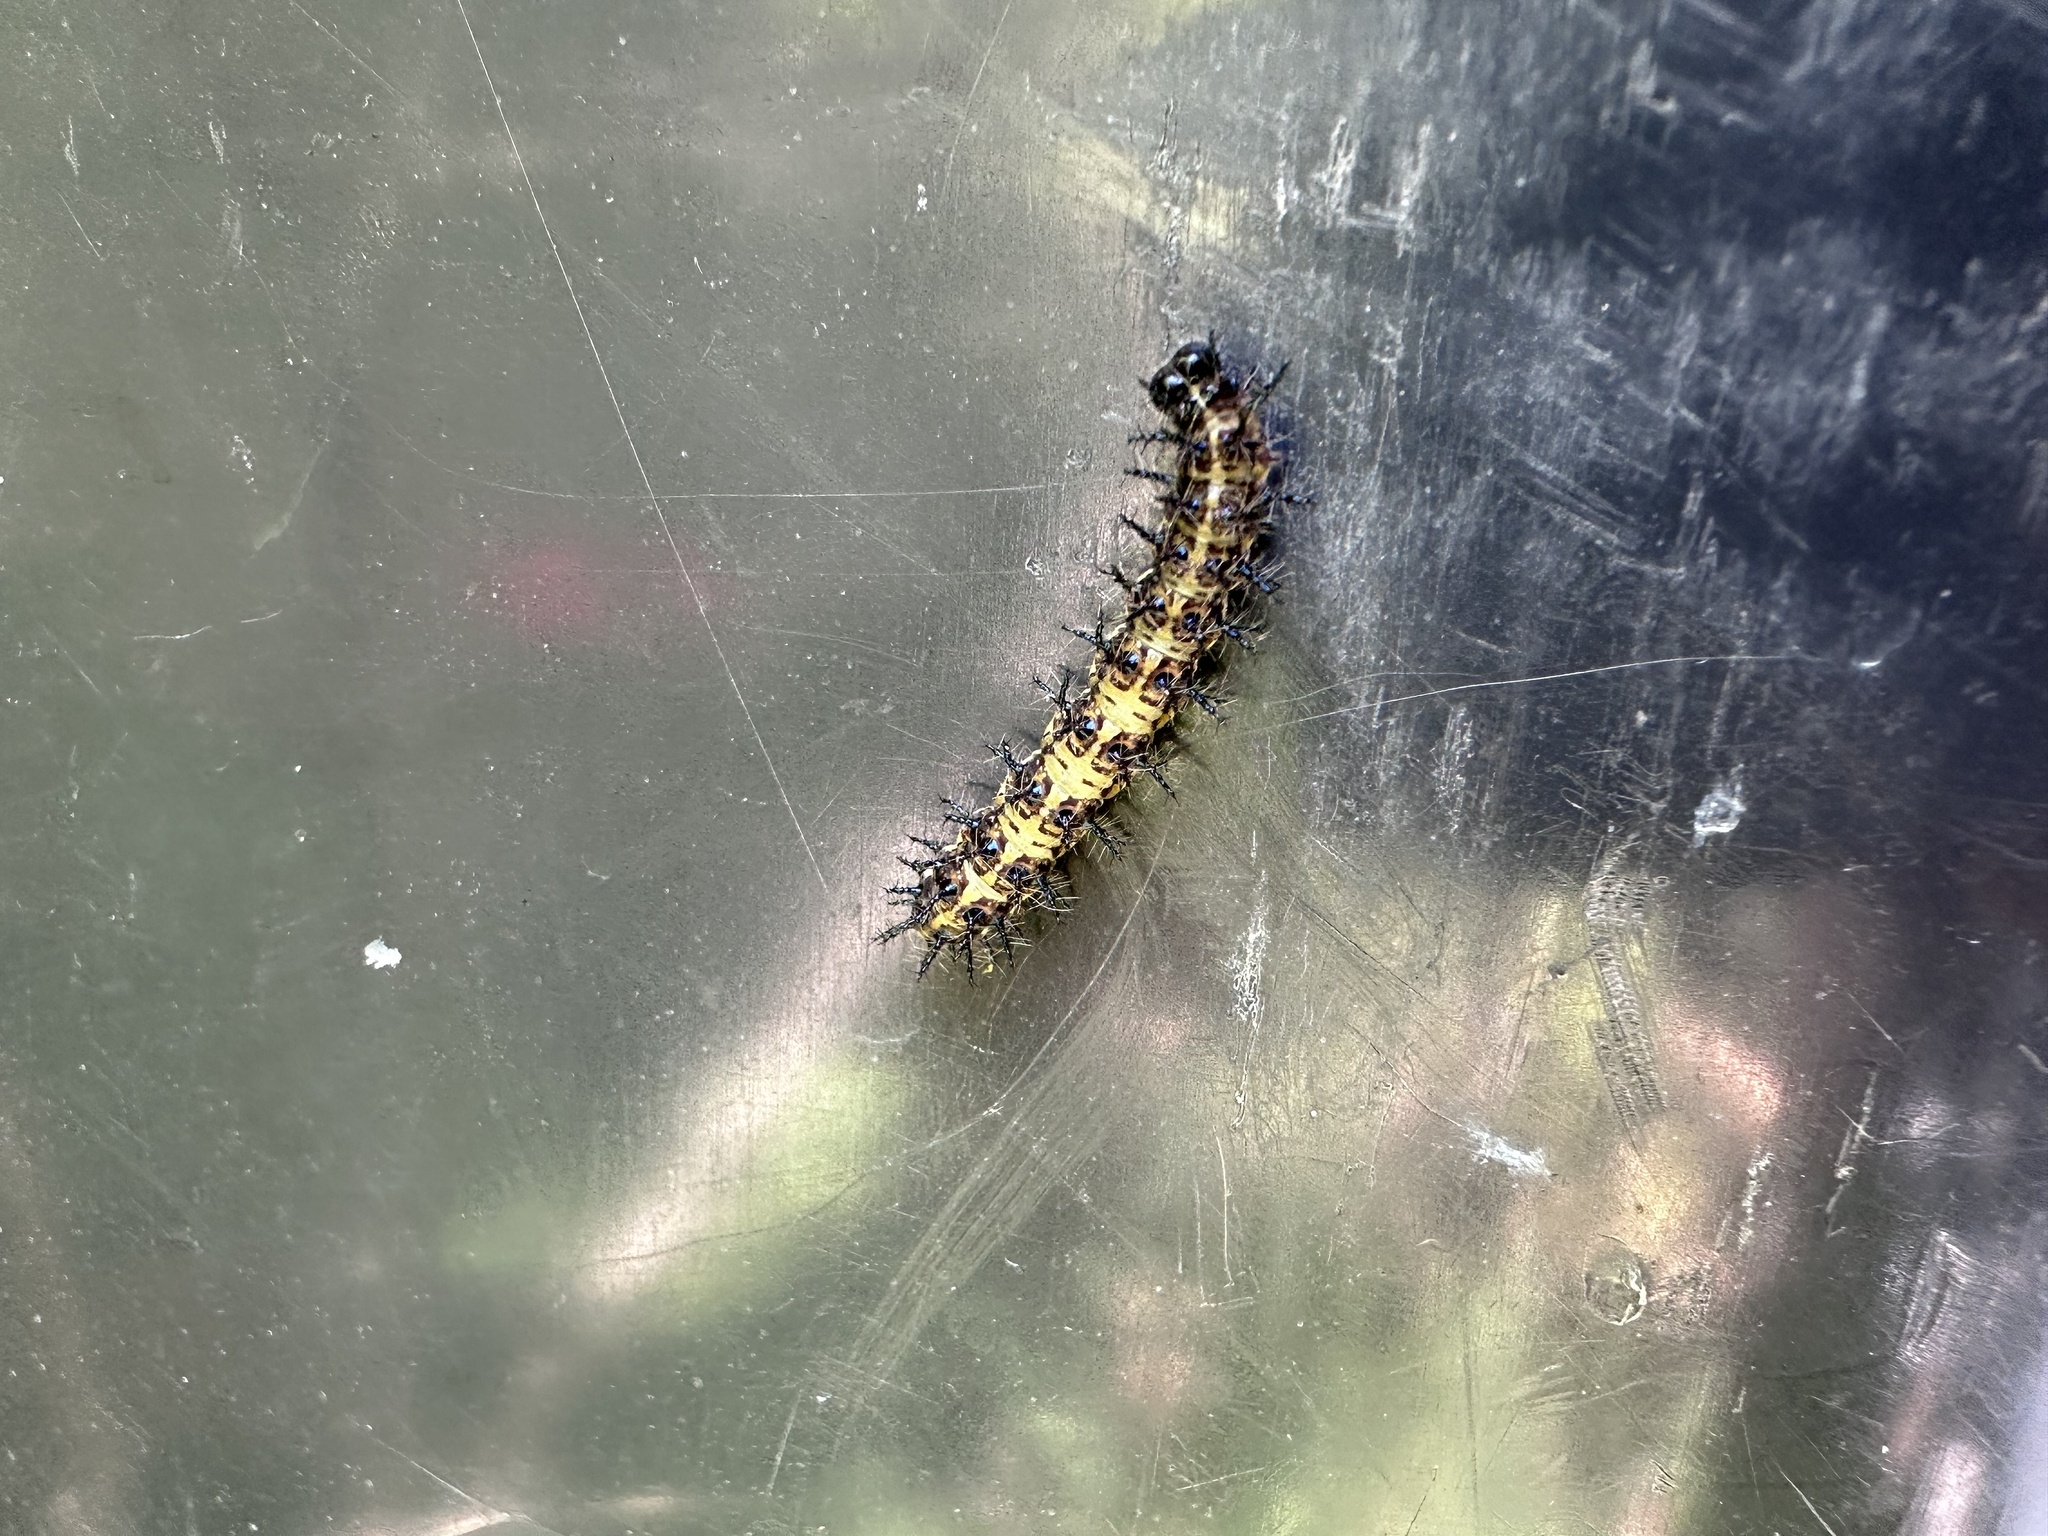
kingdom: Animalia
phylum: Arthropoda
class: Insecta
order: Lepidoptera
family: Nymphalidae
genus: Acraea
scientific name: Acraea horta
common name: Garden acraea
